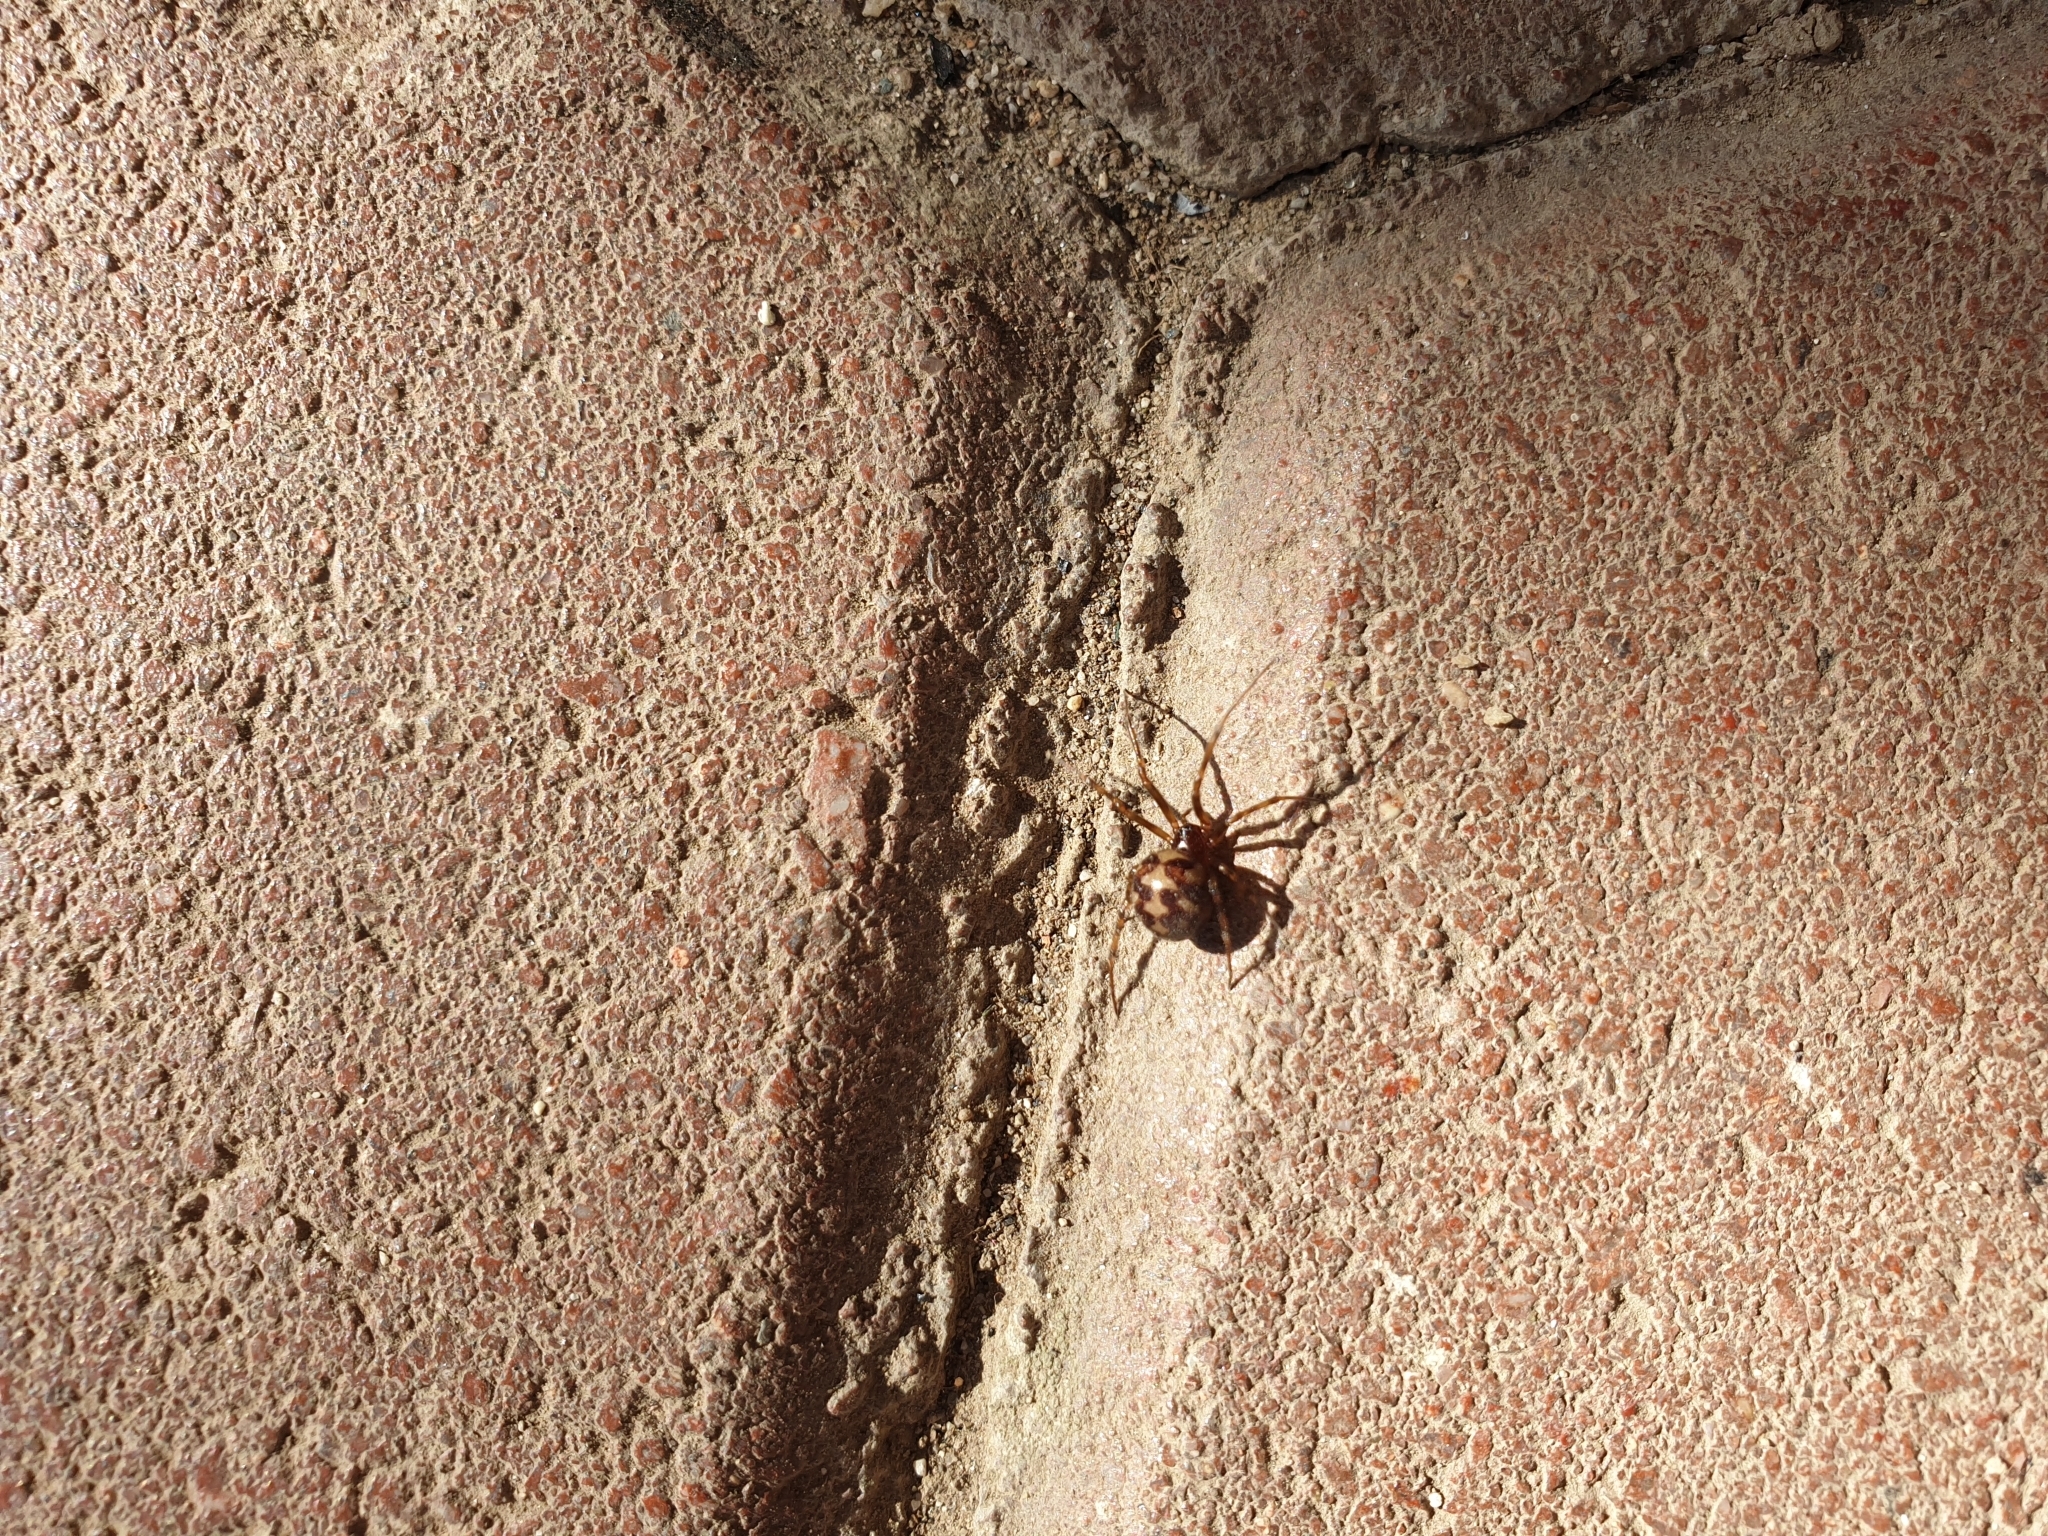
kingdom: Animalia
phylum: Arthropoda
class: Arachnida
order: Araneae
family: Theridiidae
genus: Steatoda
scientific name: Steatoda triangulosa
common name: Triangulate bud spider
